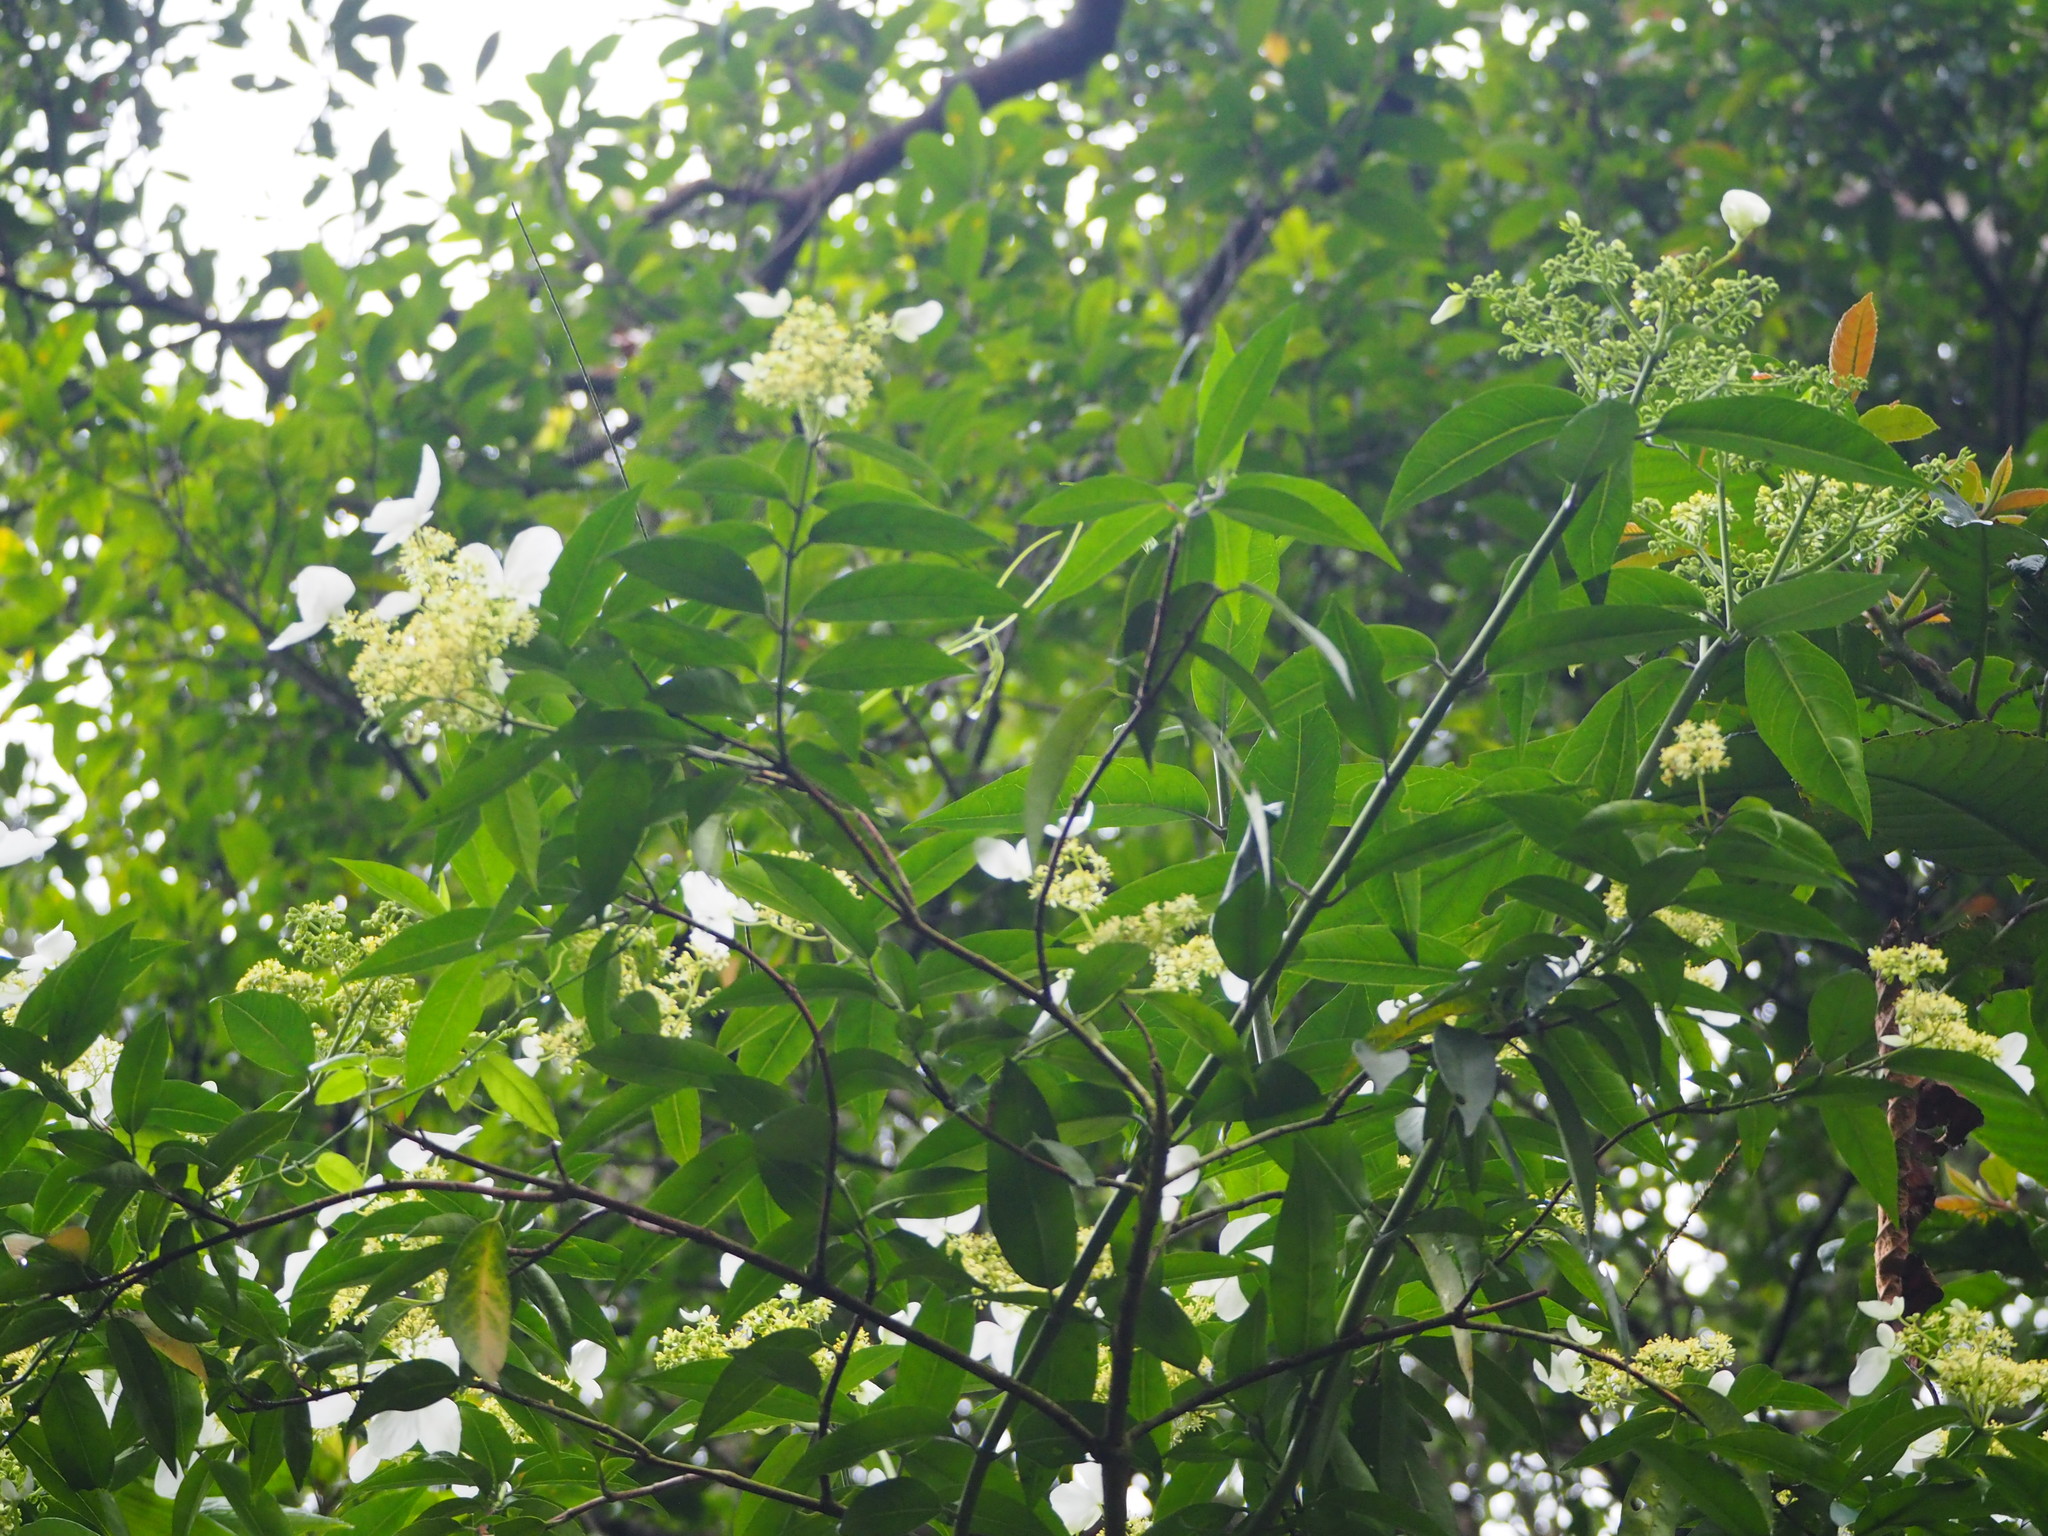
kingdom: Plantae
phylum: Tracheophyta
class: Magnoliopsida
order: Cornales
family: Hydrangeaceae
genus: Hydrangea
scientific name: Hydrangea chinensis
